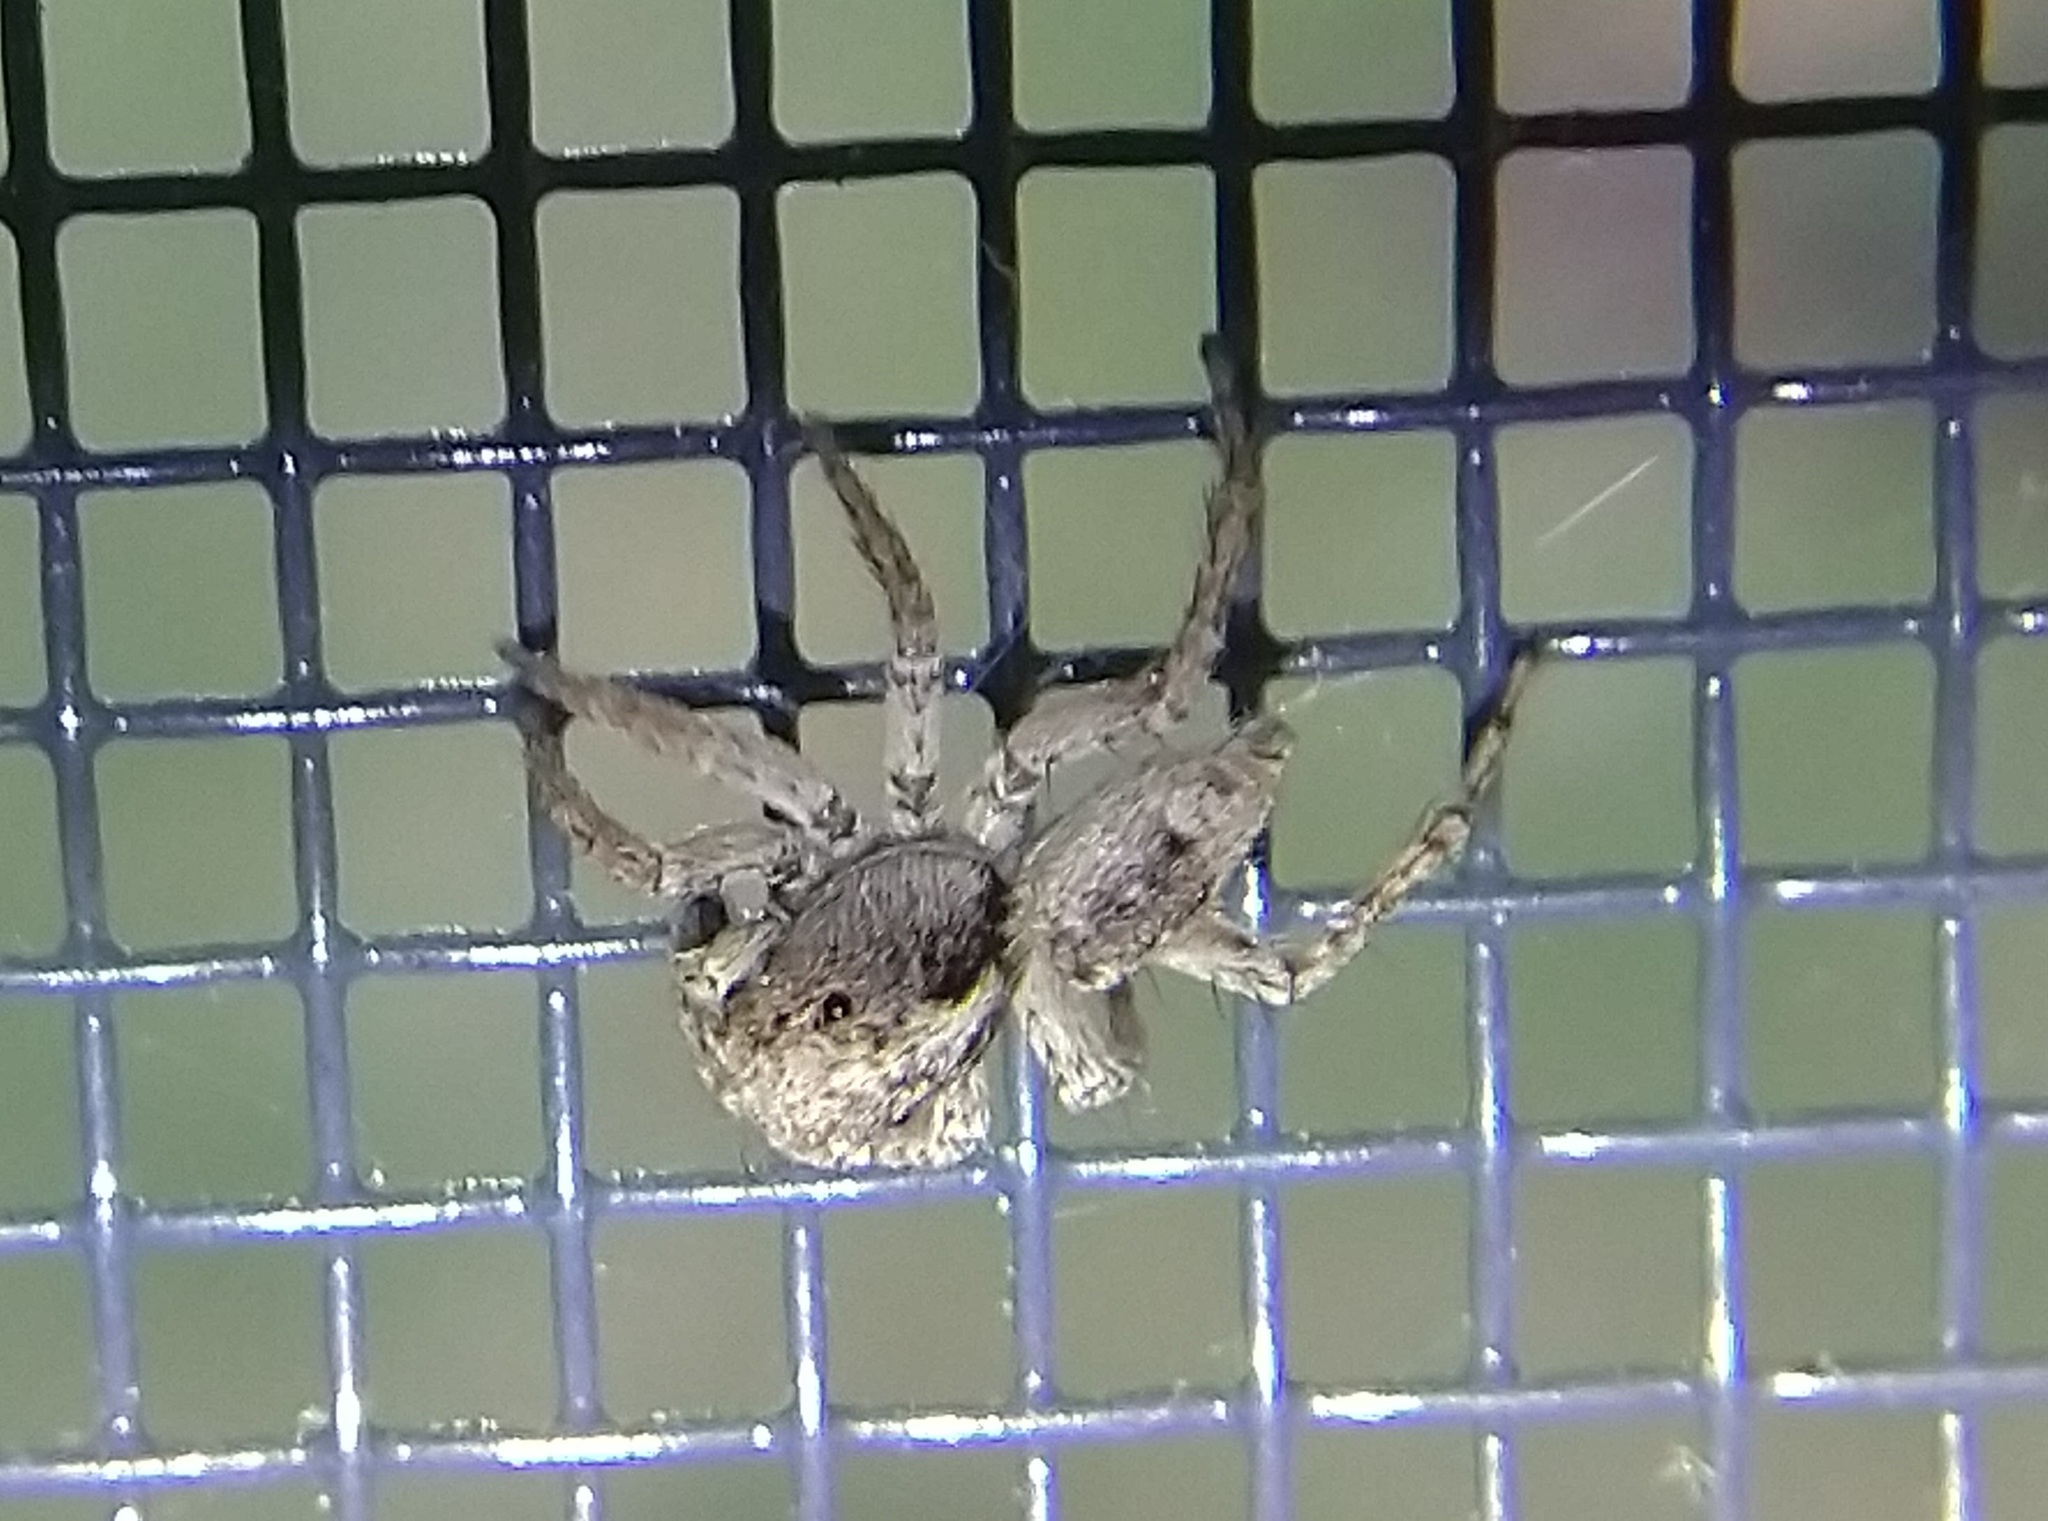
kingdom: Animalia
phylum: Arthropoda
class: Arachnida
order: Araneae
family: Salticidae
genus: Attulus
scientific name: Attulus fasciger
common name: Asiatic wall jumping spider
